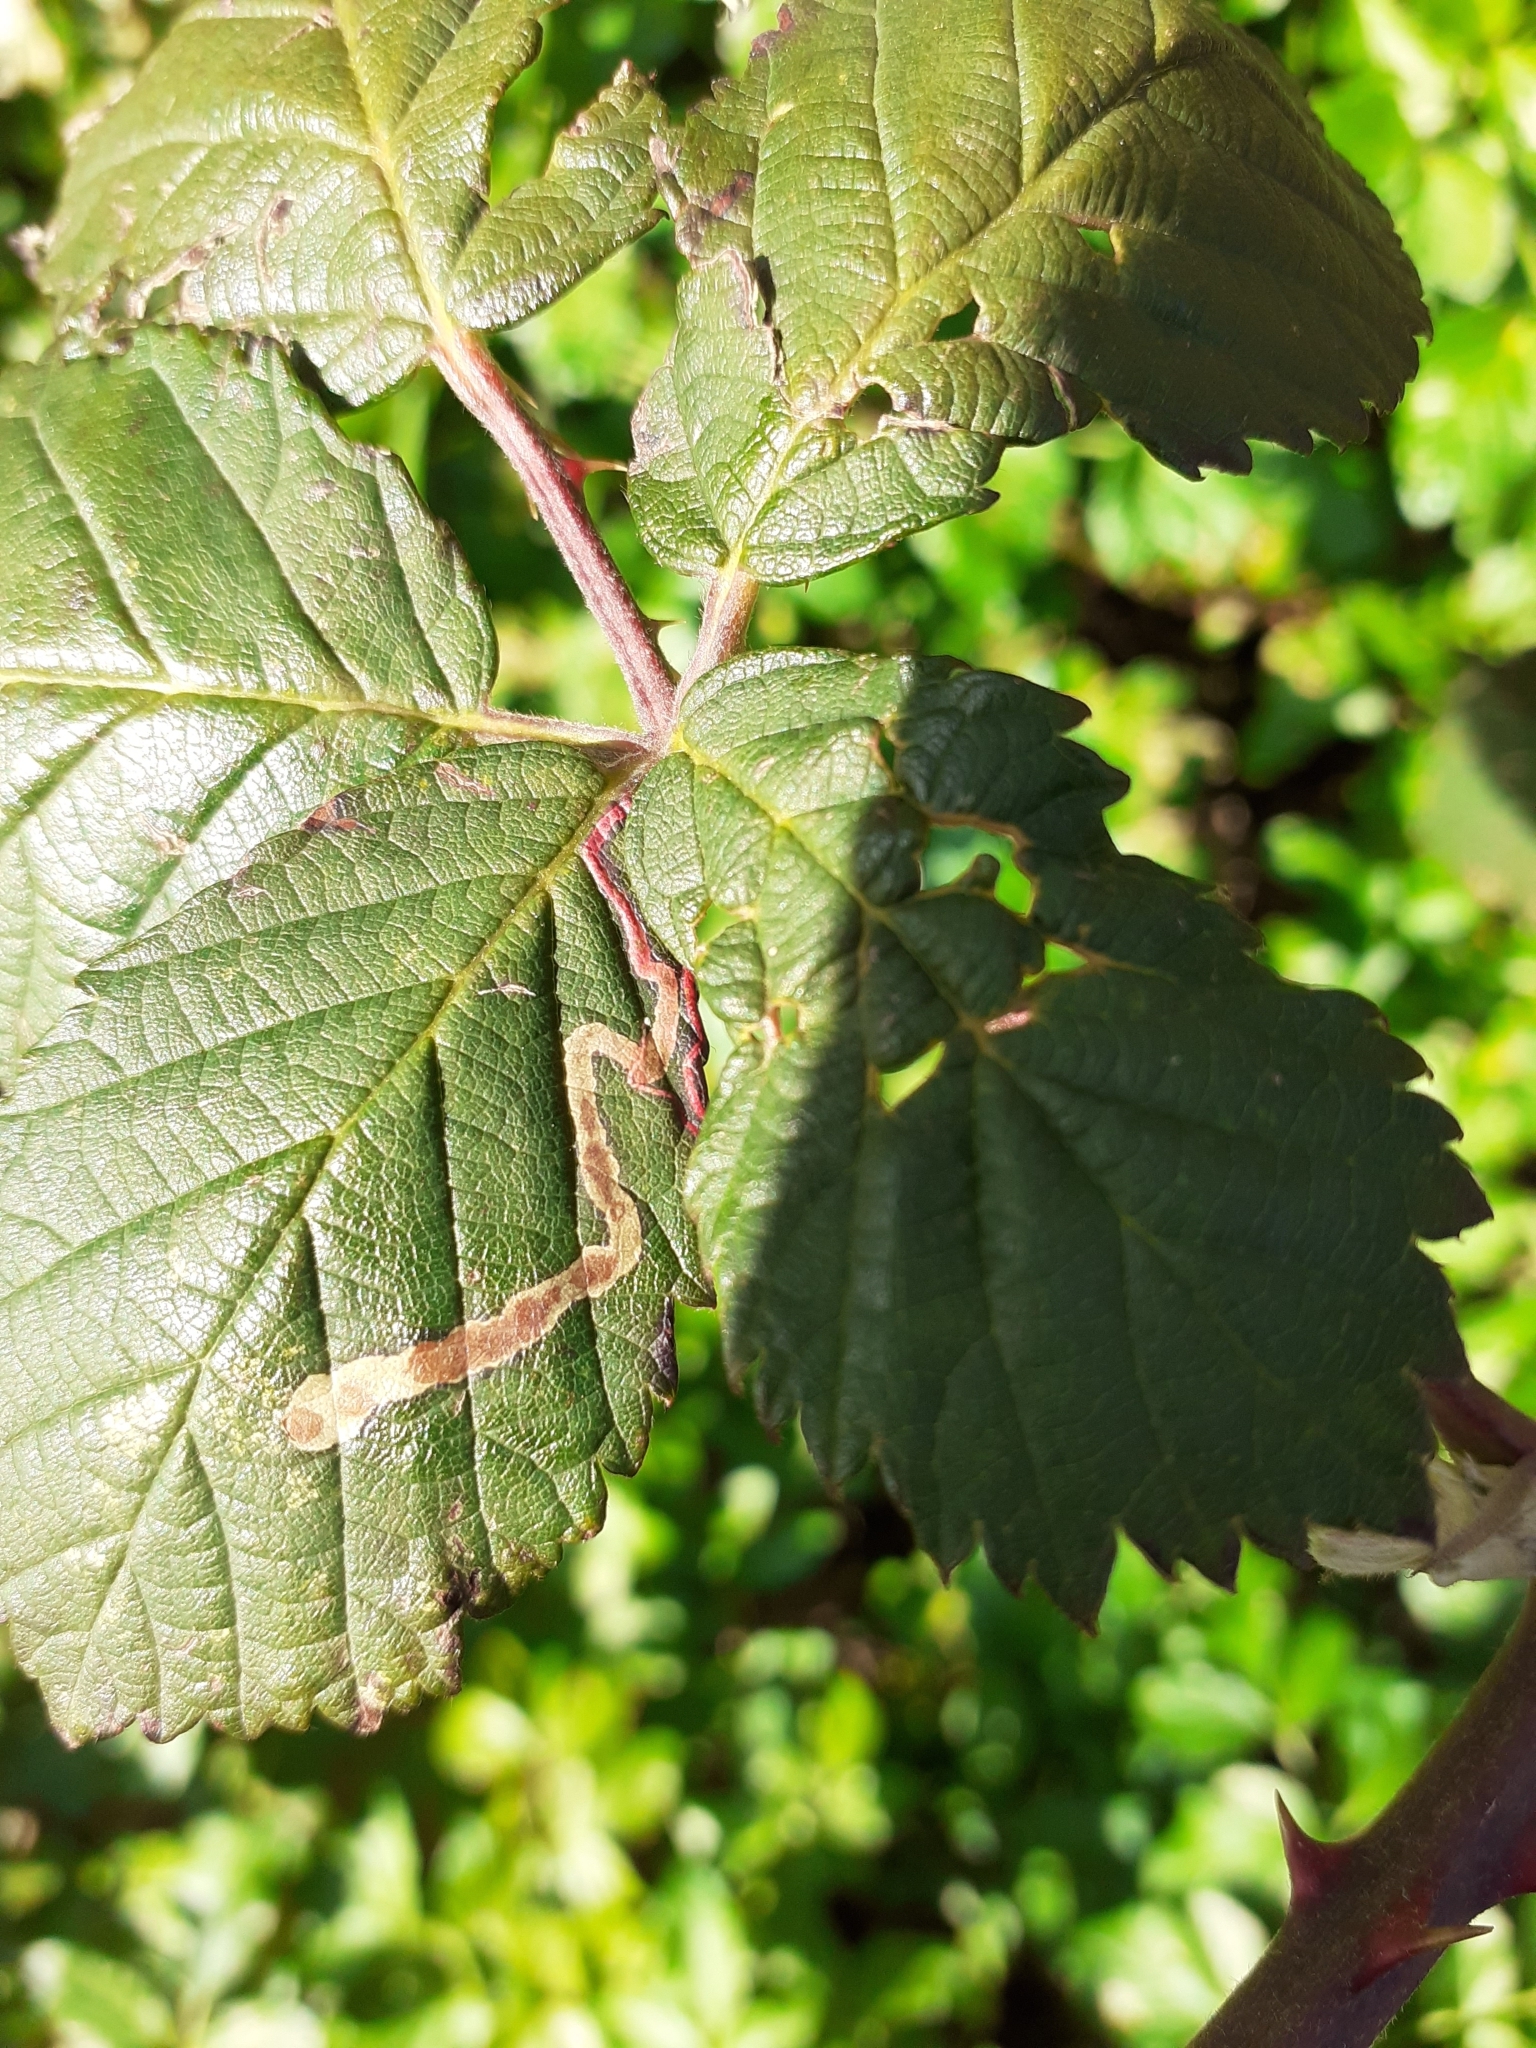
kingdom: Animalia
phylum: Arthropoda
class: Insecta
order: Lepidoptera
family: Nepticulidae
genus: Stigmella
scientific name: Stigmella aurella
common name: Golden pigmy
